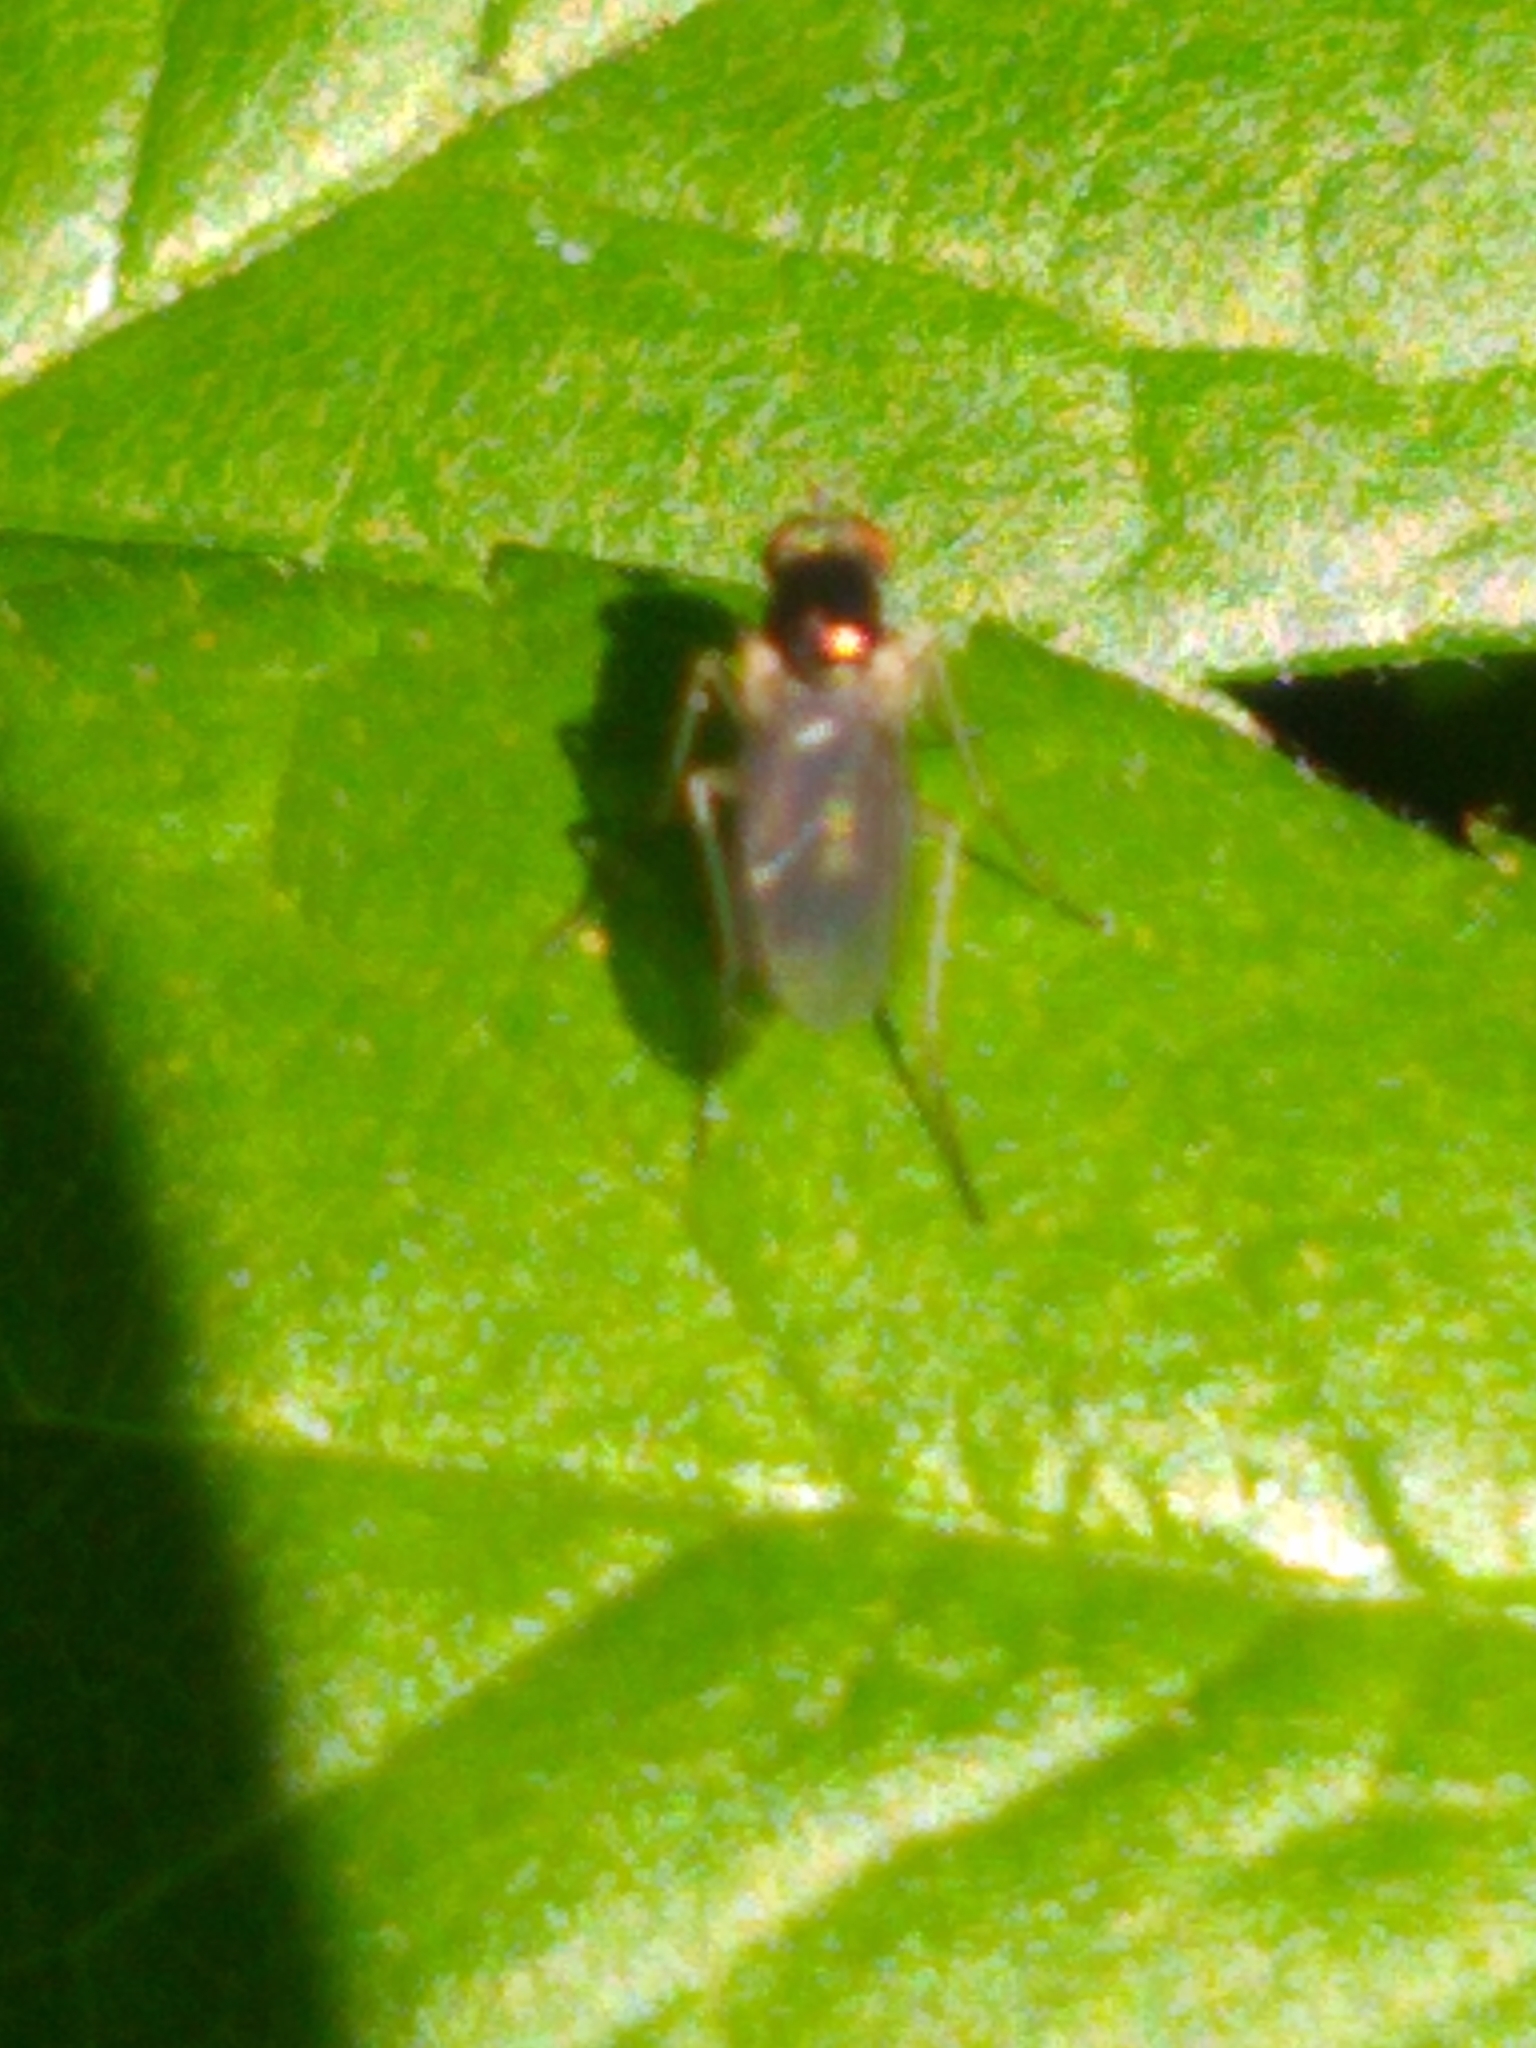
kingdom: Animalia
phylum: Arthropoda
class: Insecta
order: Diptera
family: Dolichopodidae
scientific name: Dolichopodidae
